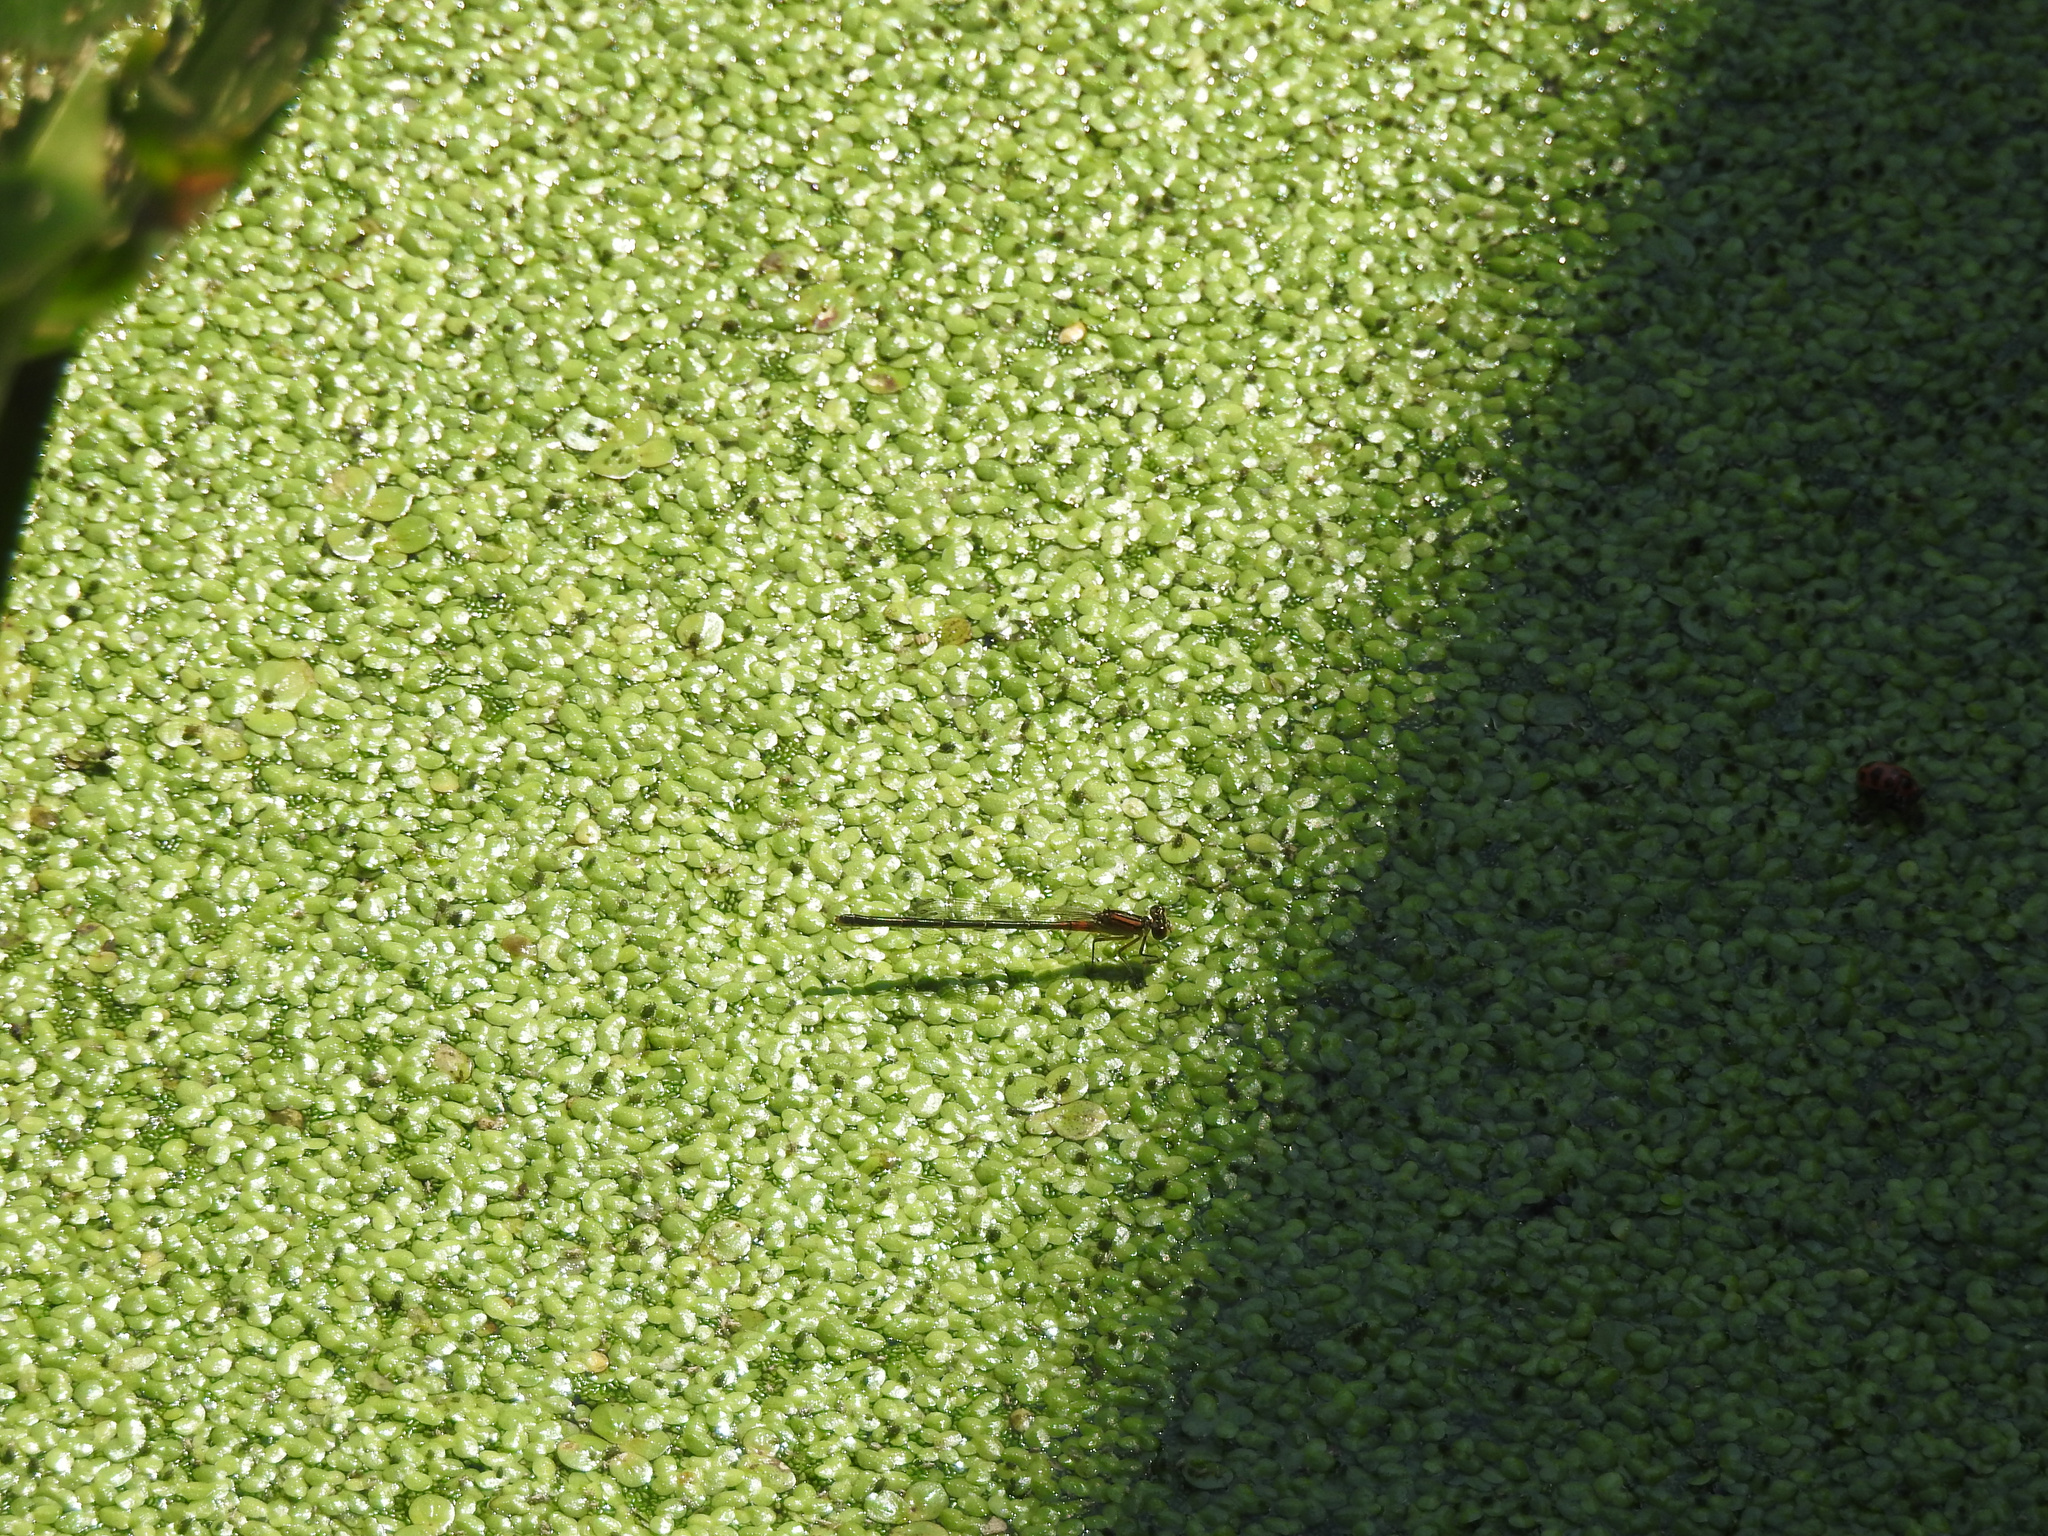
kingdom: Animalia
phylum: Arthropoda
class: Insecta
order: Odonata
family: Coenagrionidae
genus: Ischnura
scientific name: Ischnura verticalis
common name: Eastern forktail
